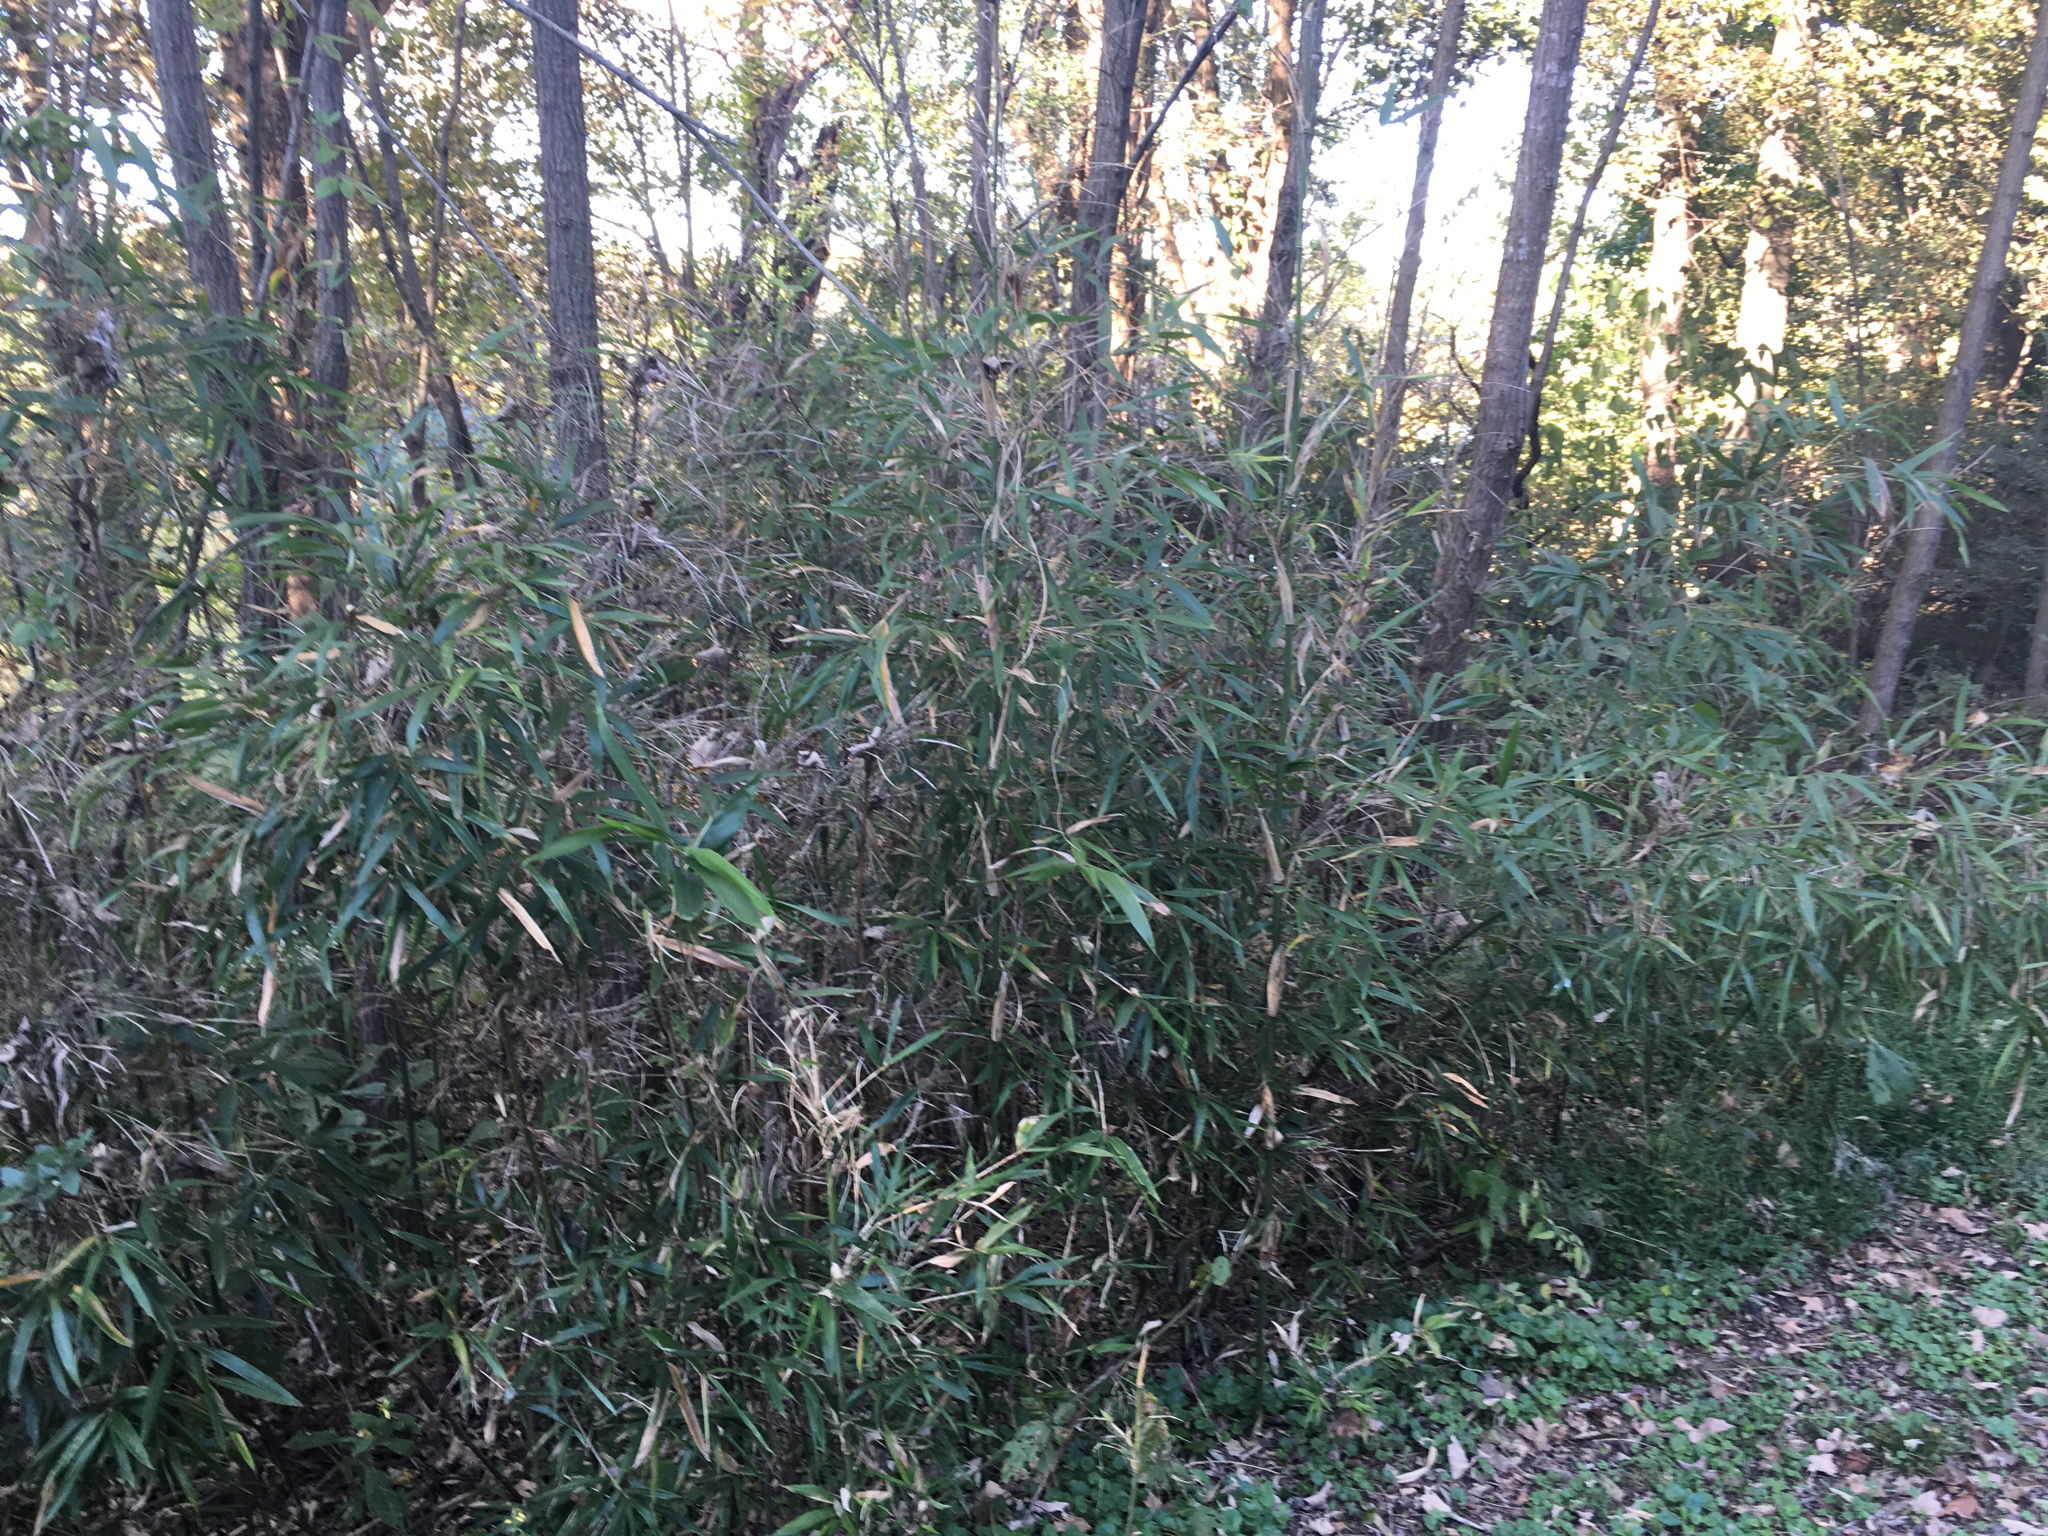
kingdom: Plantae
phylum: Tracheophyta
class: Liliopsida
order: Poales
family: Poaceae
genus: Arundinaria
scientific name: Arundinaria gigantea
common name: Giant cane
